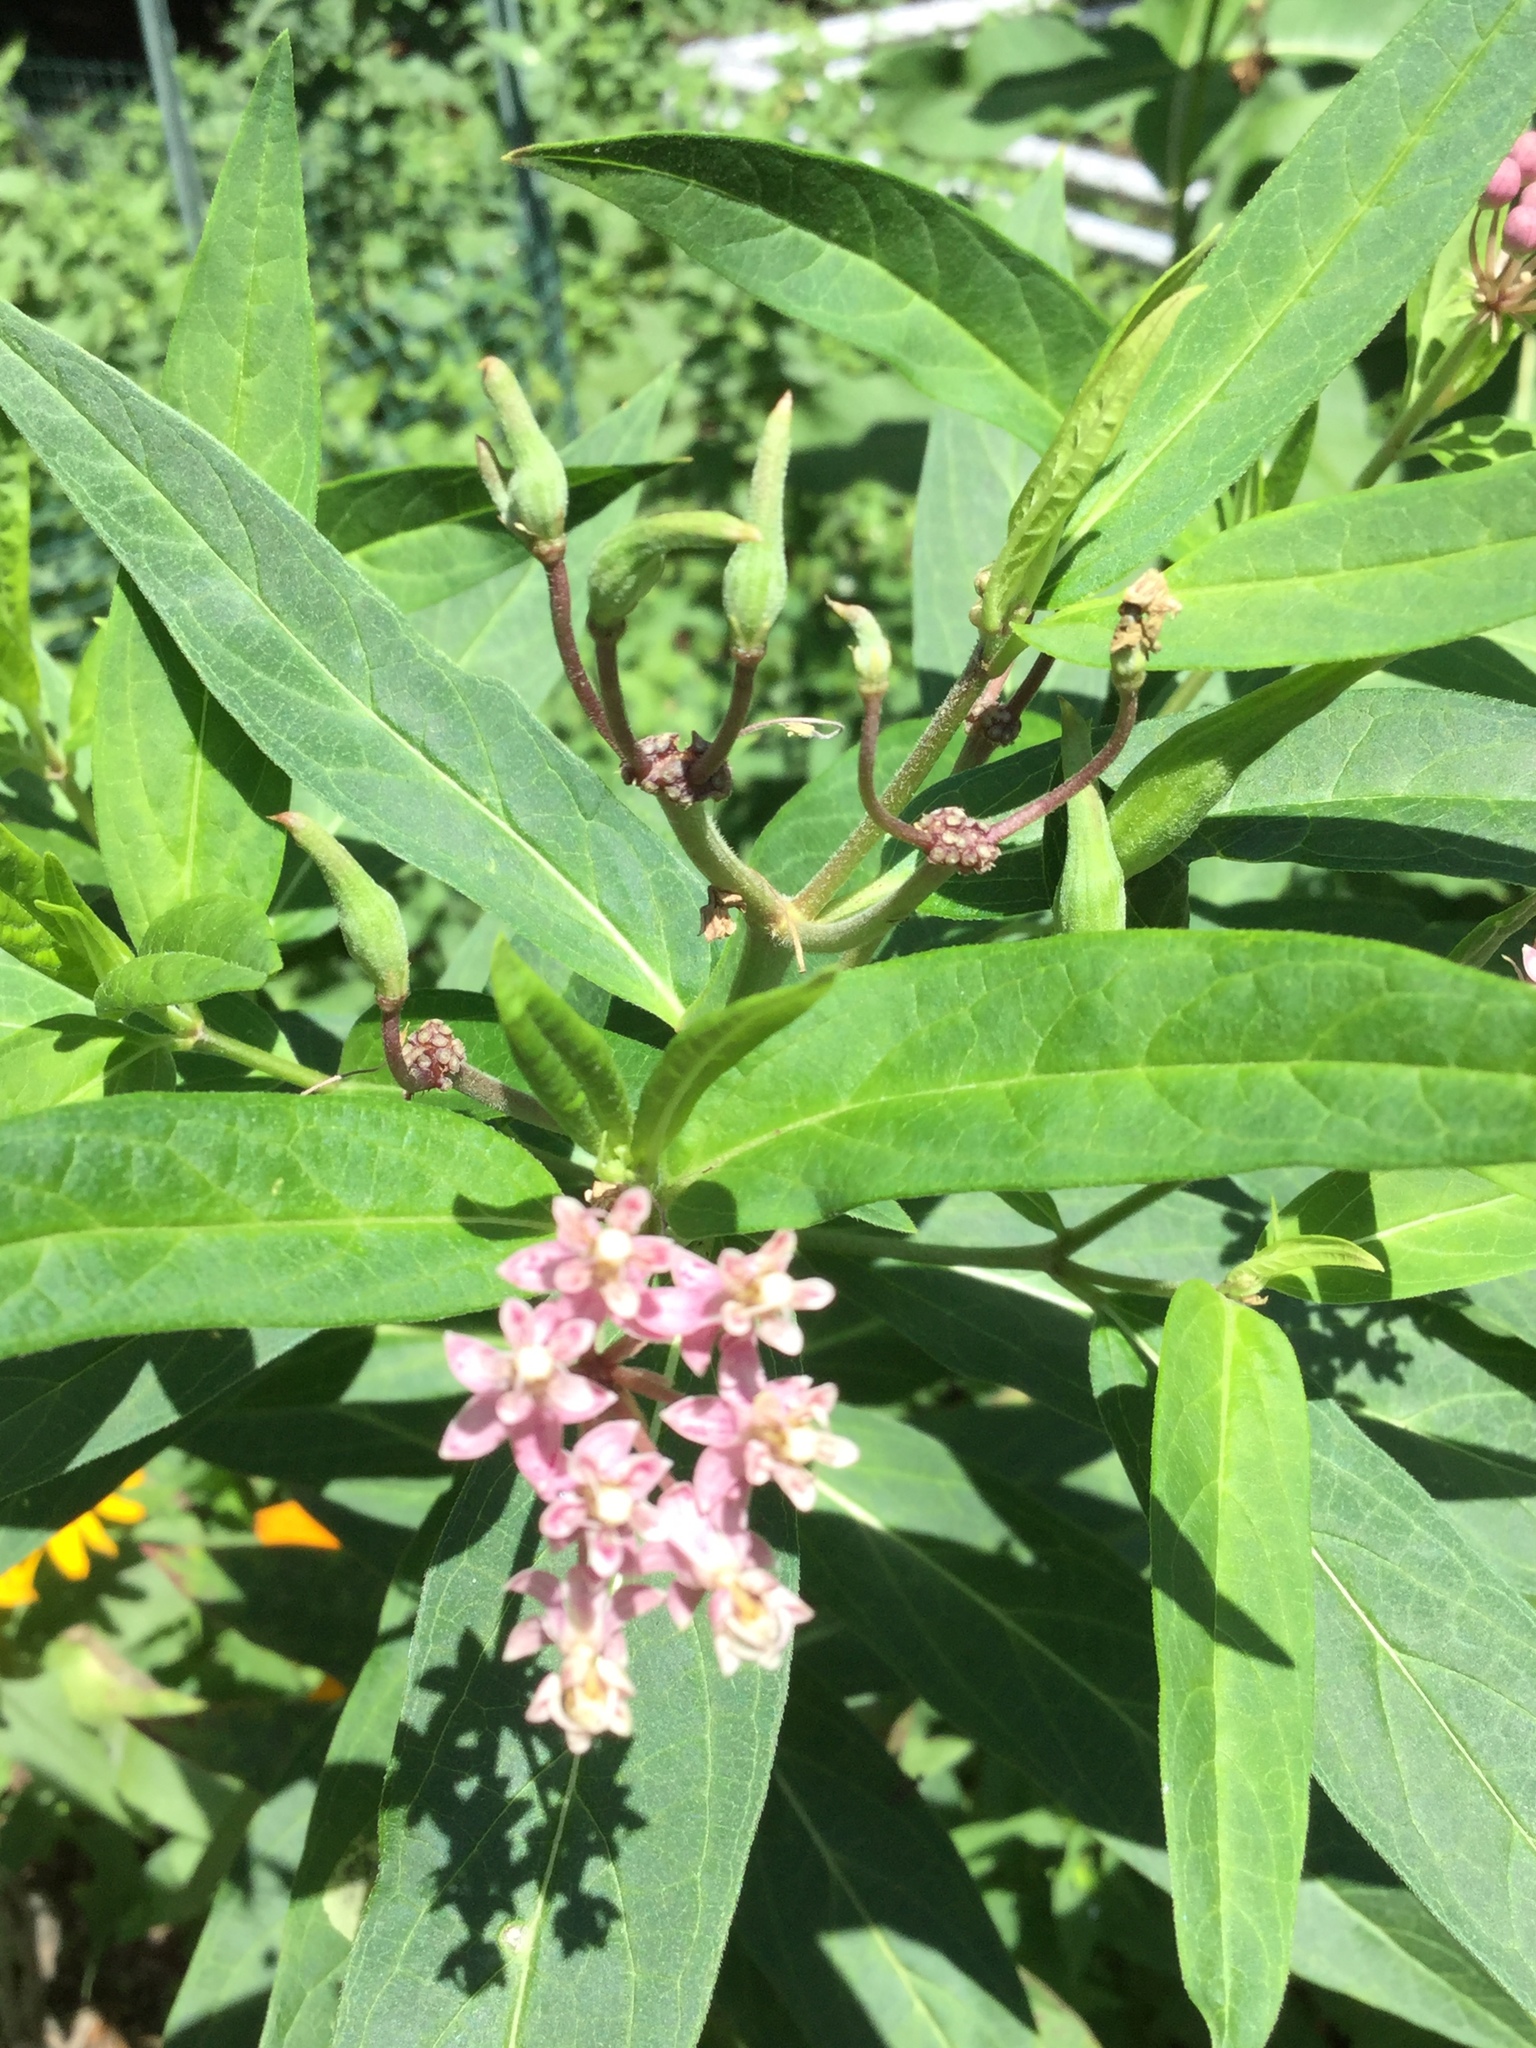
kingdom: Plantae
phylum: Tracheophyta
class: Magnoliopsida
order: Gentianales
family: Apocynaceae
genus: Asclepias
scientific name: Asclepias incarnata
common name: Swamp milkweed
